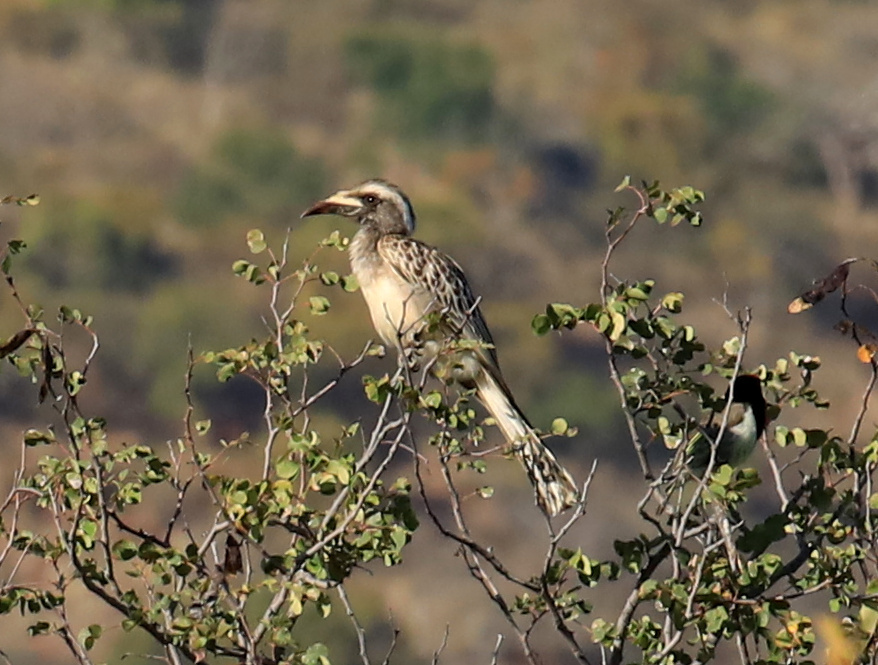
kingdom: Animalia
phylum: Chordata
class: Aves
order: Bucerotiformes
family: Bucerotidae
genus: Lophoceros
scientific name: Lophoceros nasutus
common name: African grey hornbill
